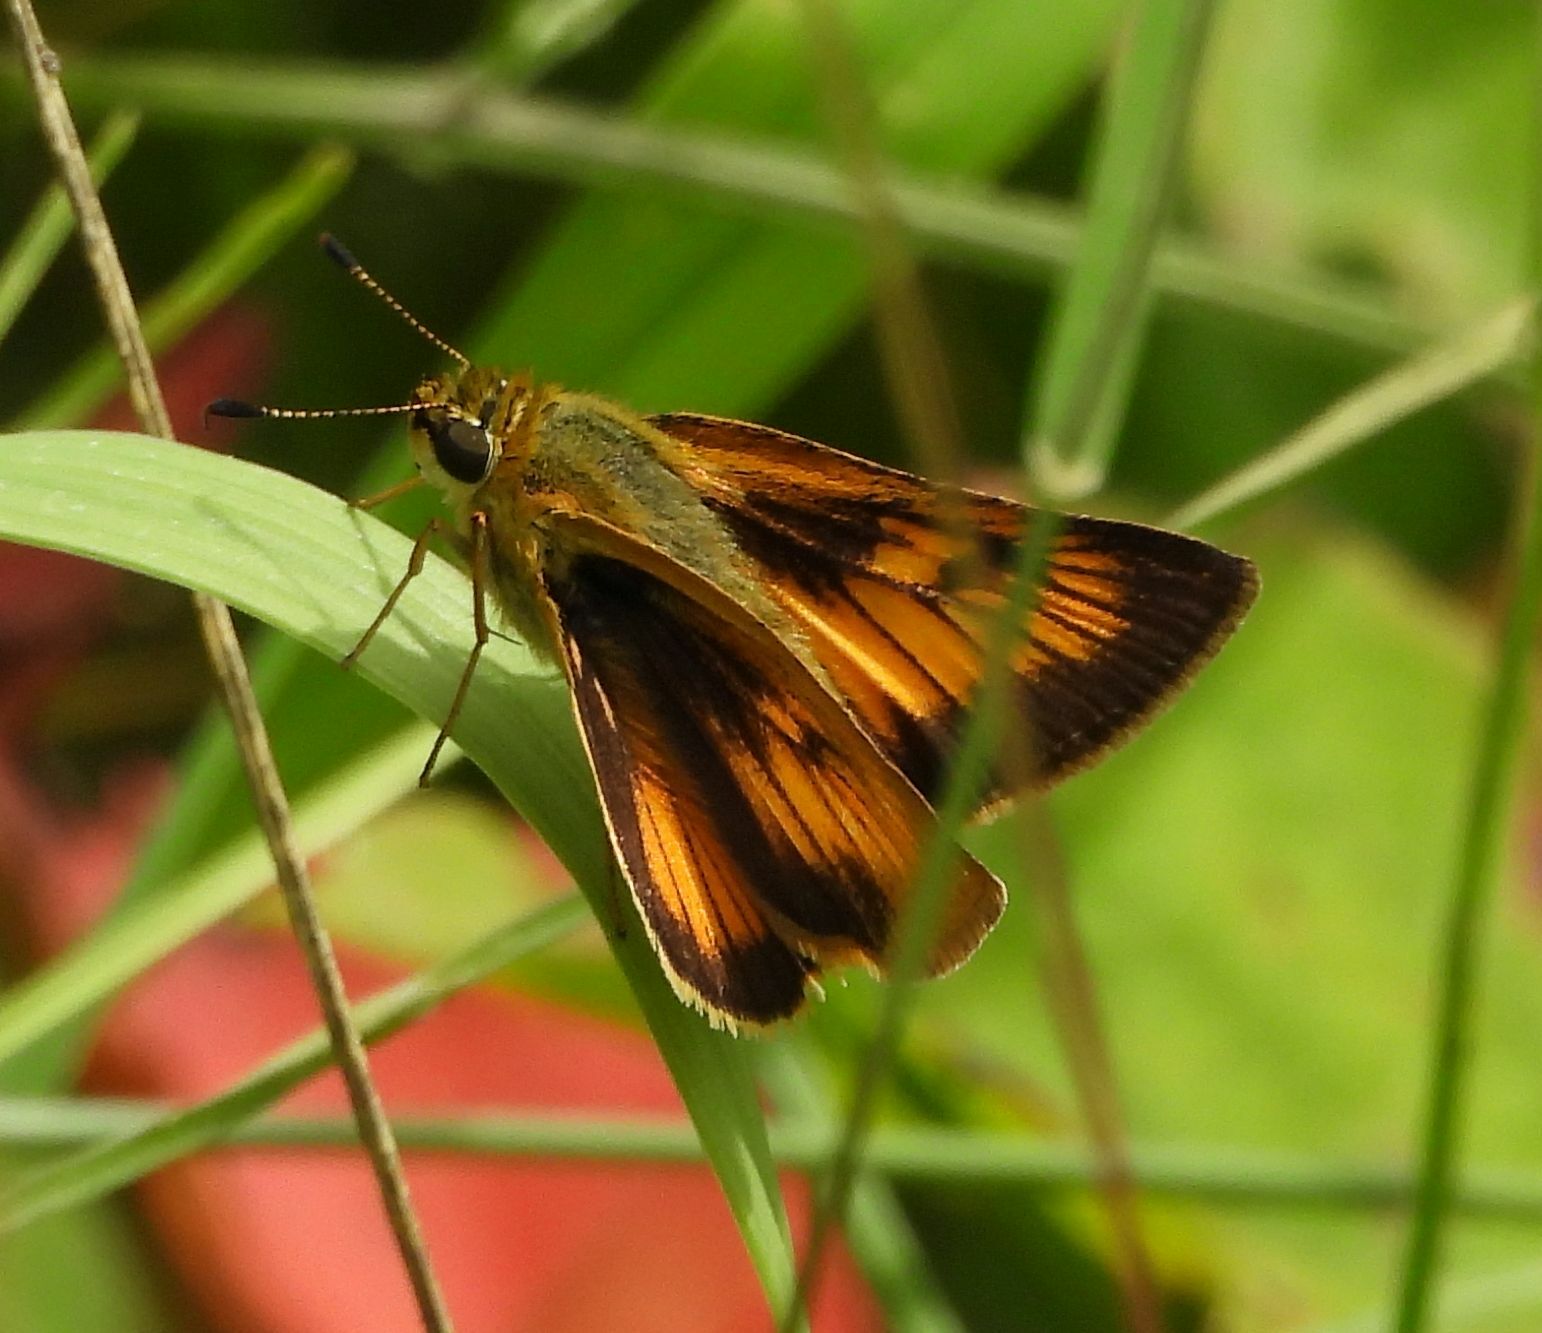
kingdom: Animalia
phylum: Arthropoda
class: Insecta
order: Lepidoptera
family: Hesperiidae
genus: Atrytone
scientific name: Atrytone delaware
